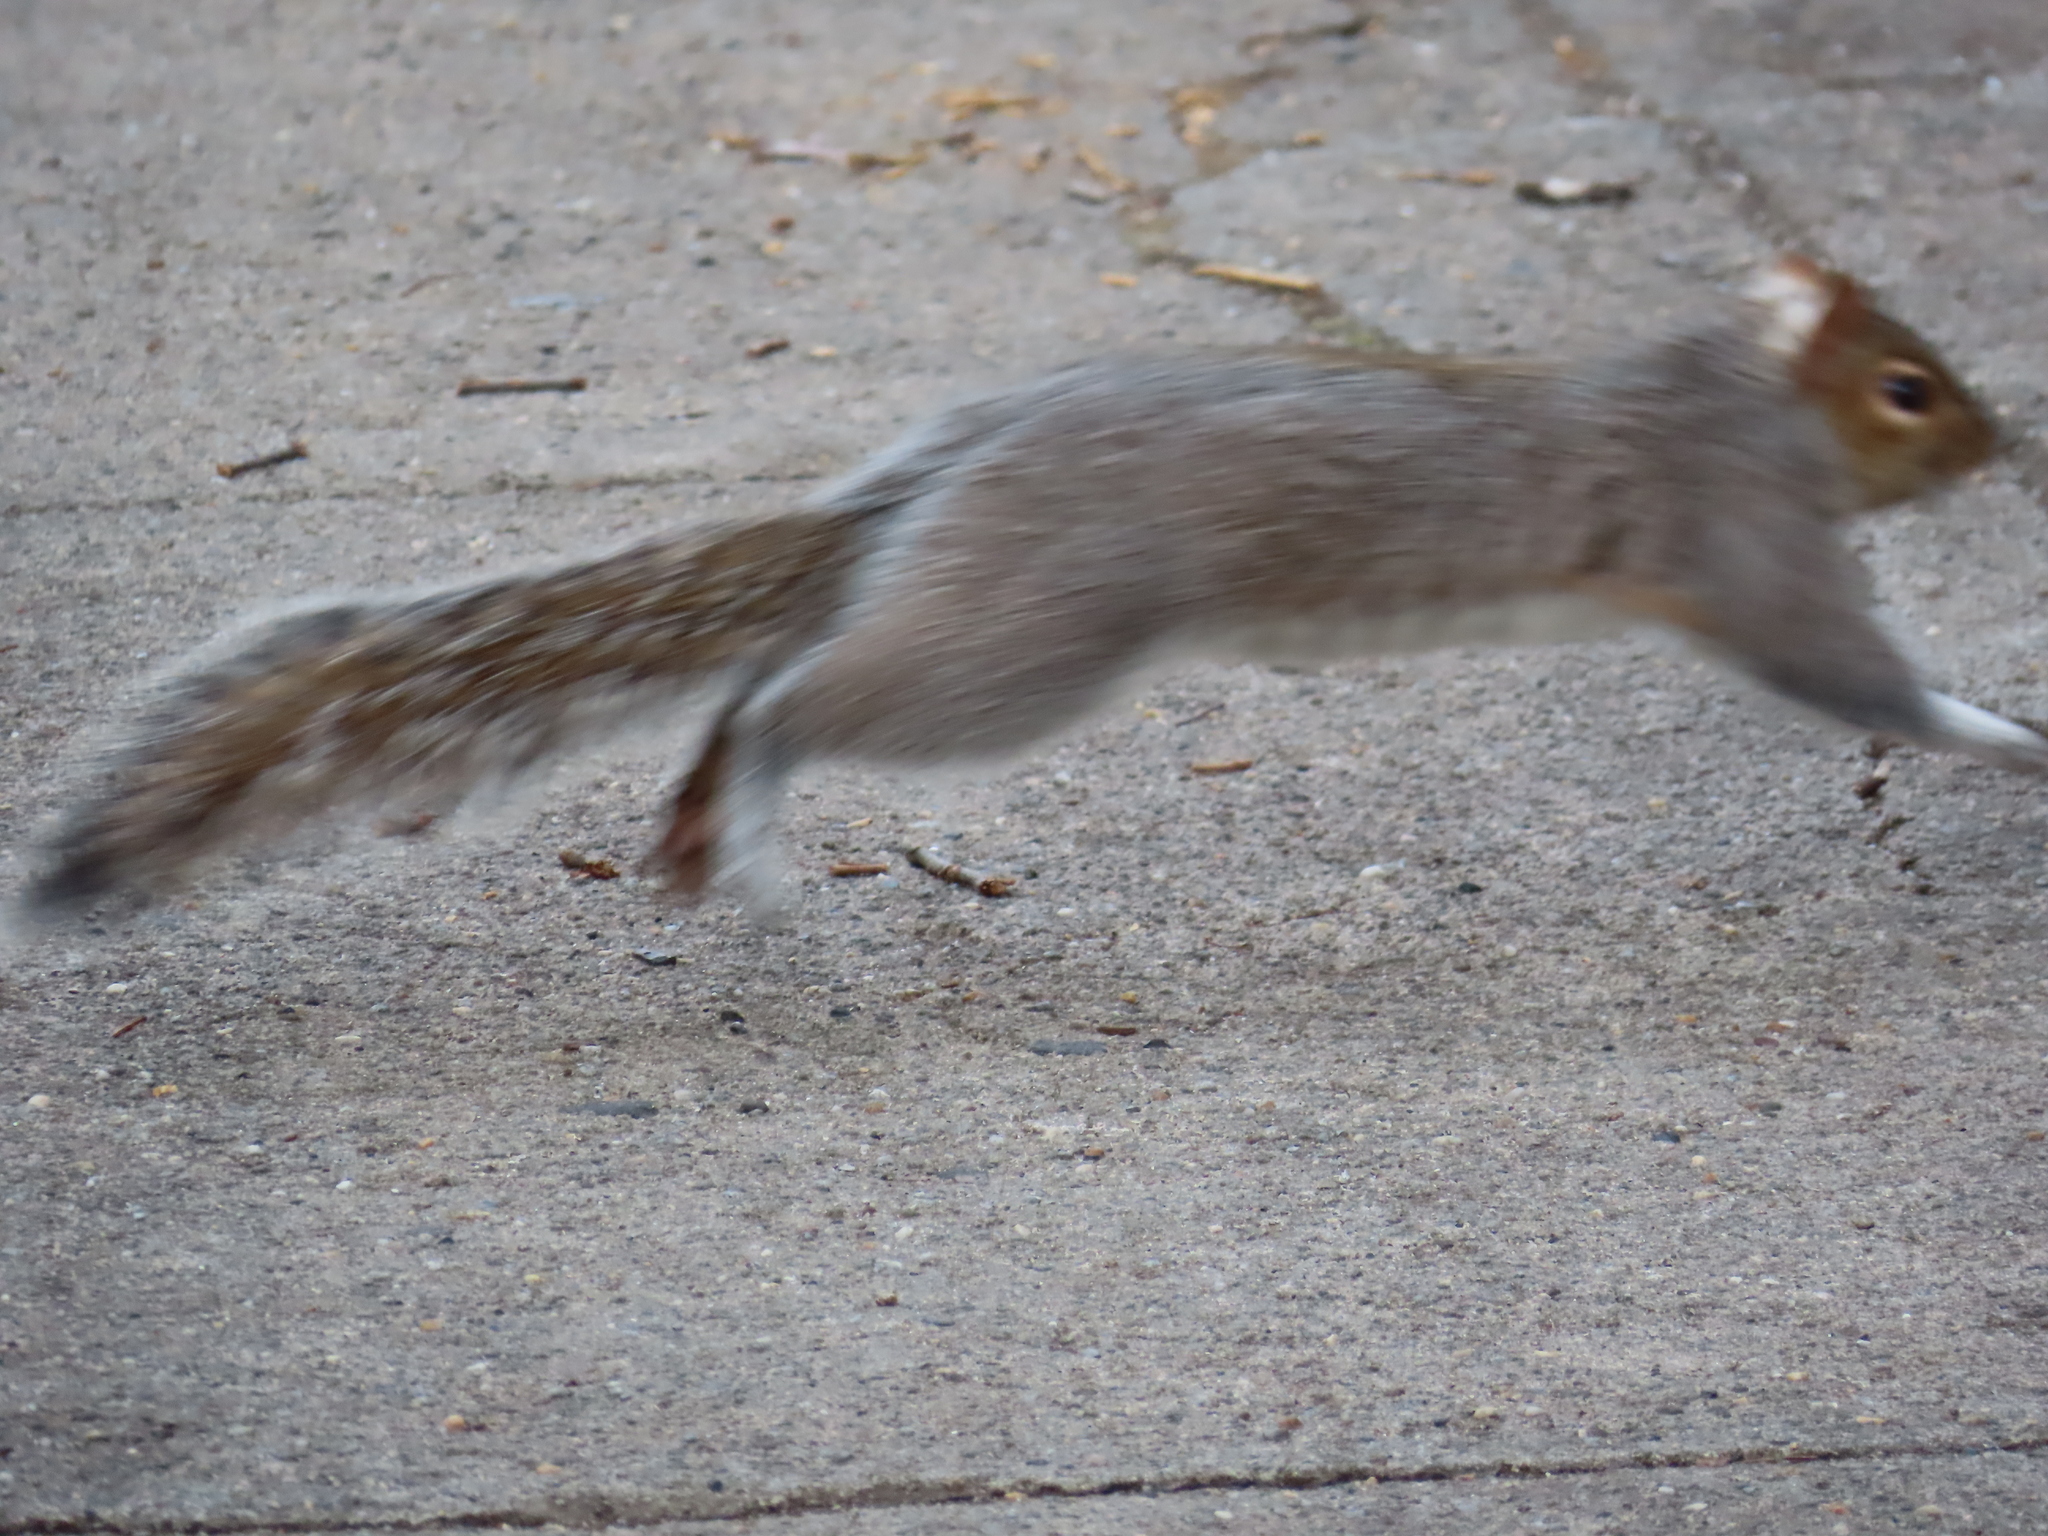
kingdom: Animalia
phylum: Chordata
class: Mammalia
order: Rodentia
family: Sciuridae
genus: Sciurus
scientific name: Sciurus carolinensis
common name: Eastern gray squirrel
